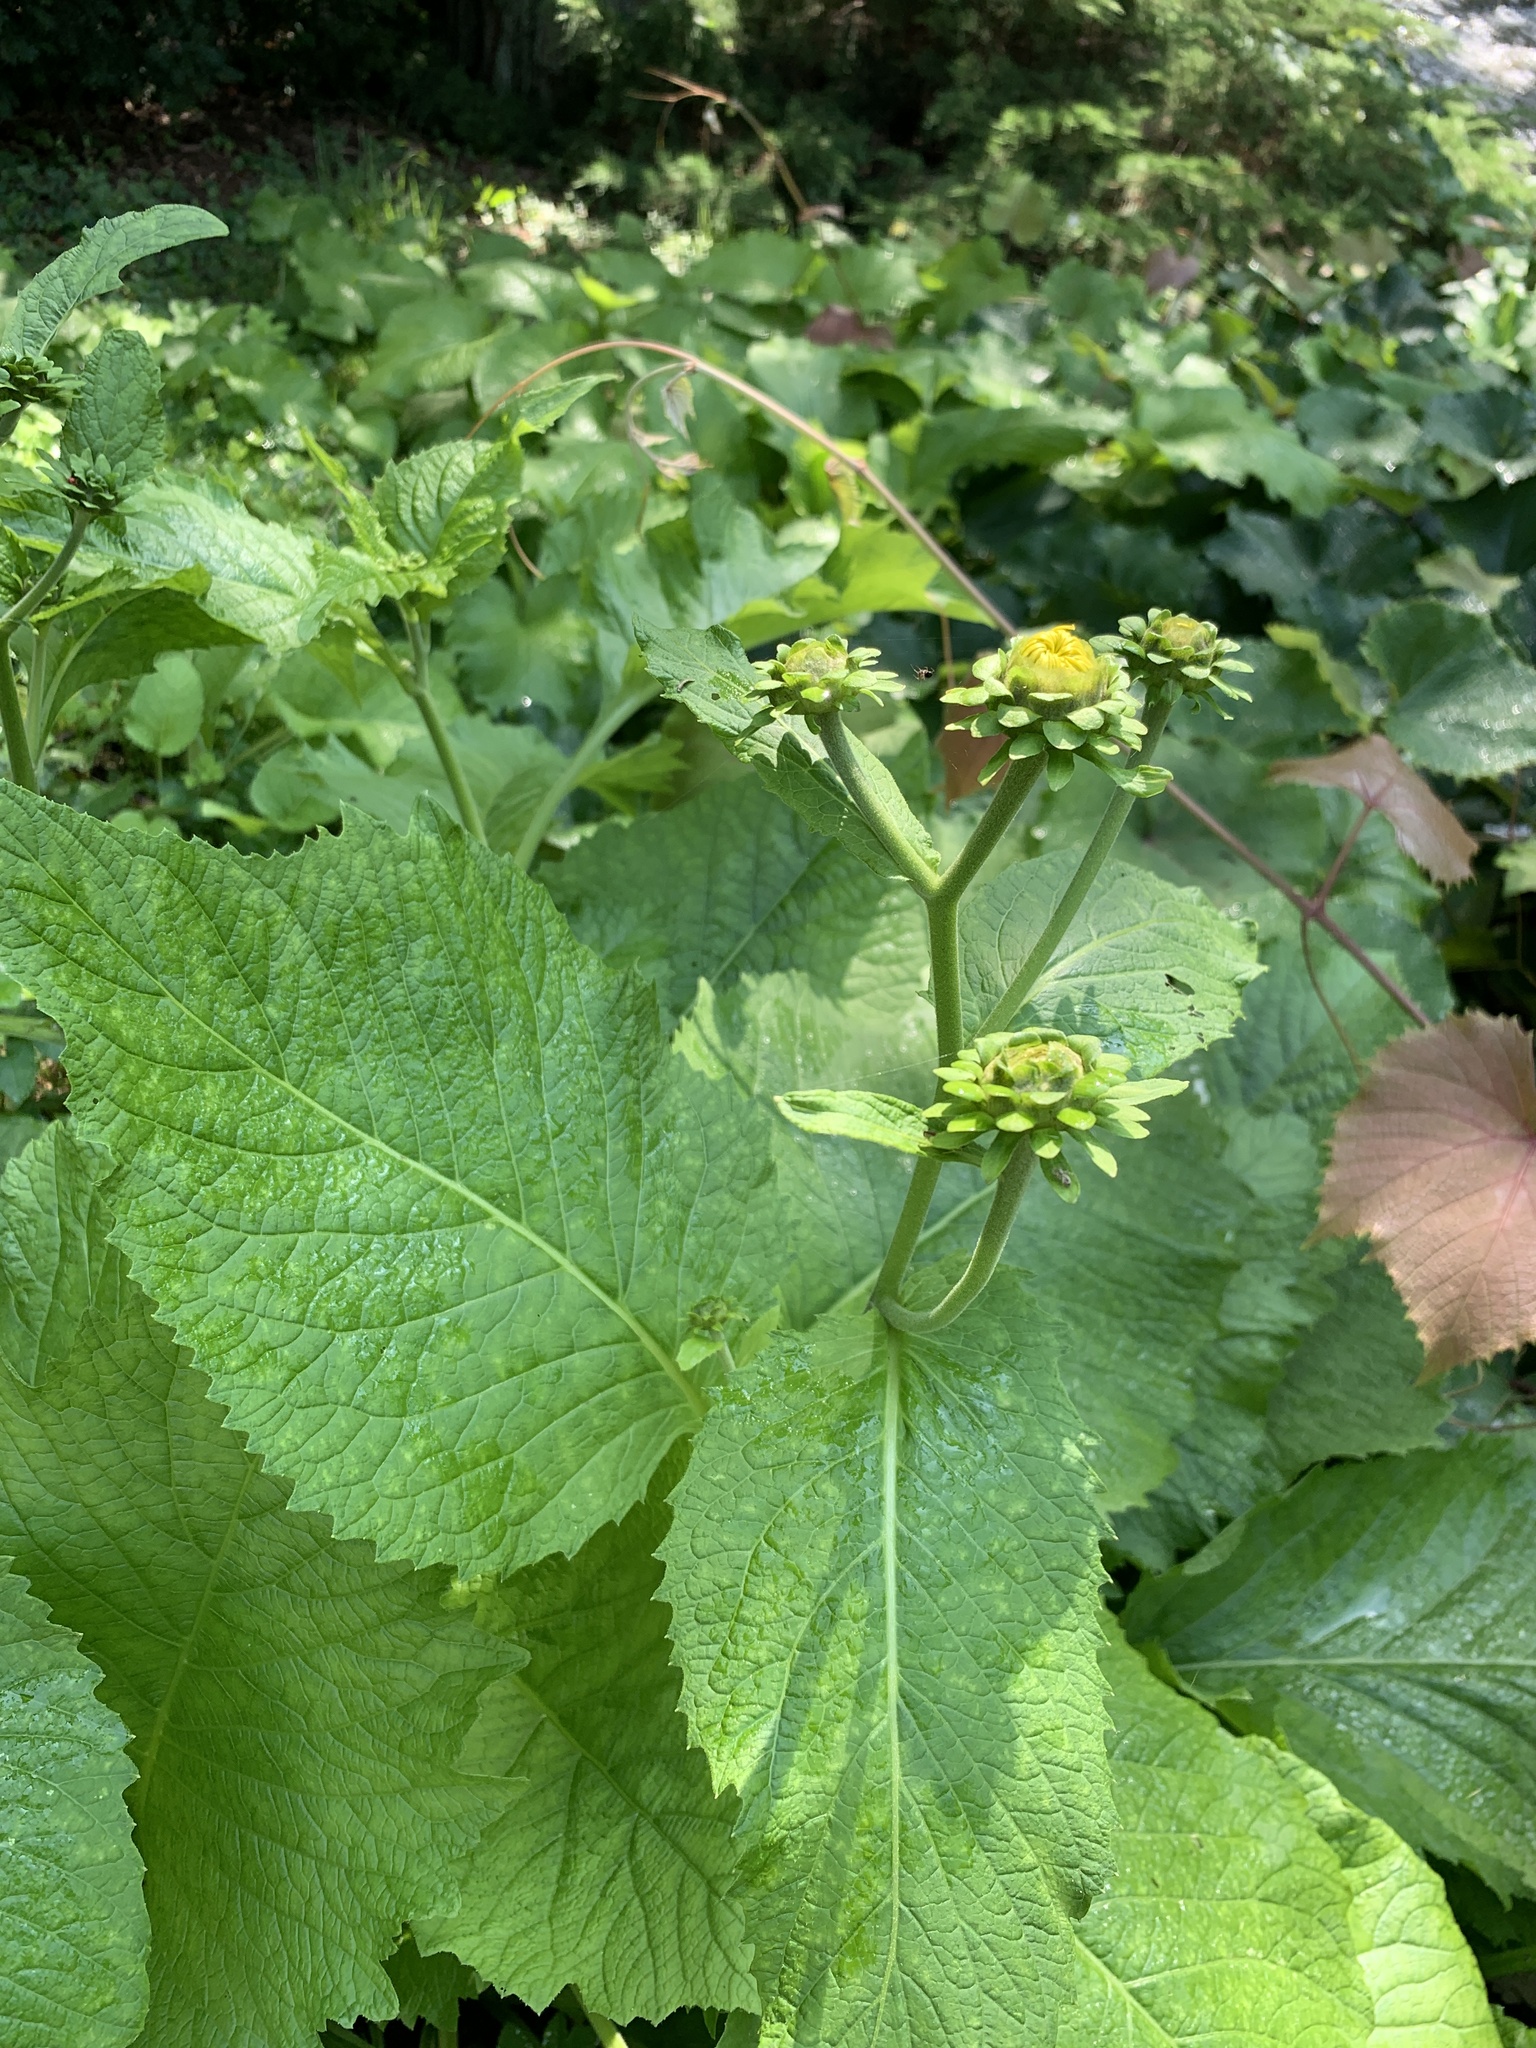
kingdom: Plantae
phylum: Tracheophyta
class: Magnoliopsida
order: Asterales
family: Asteraceae
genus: Telekia
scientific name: Telekia speciosa
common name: Yellow oxeye
